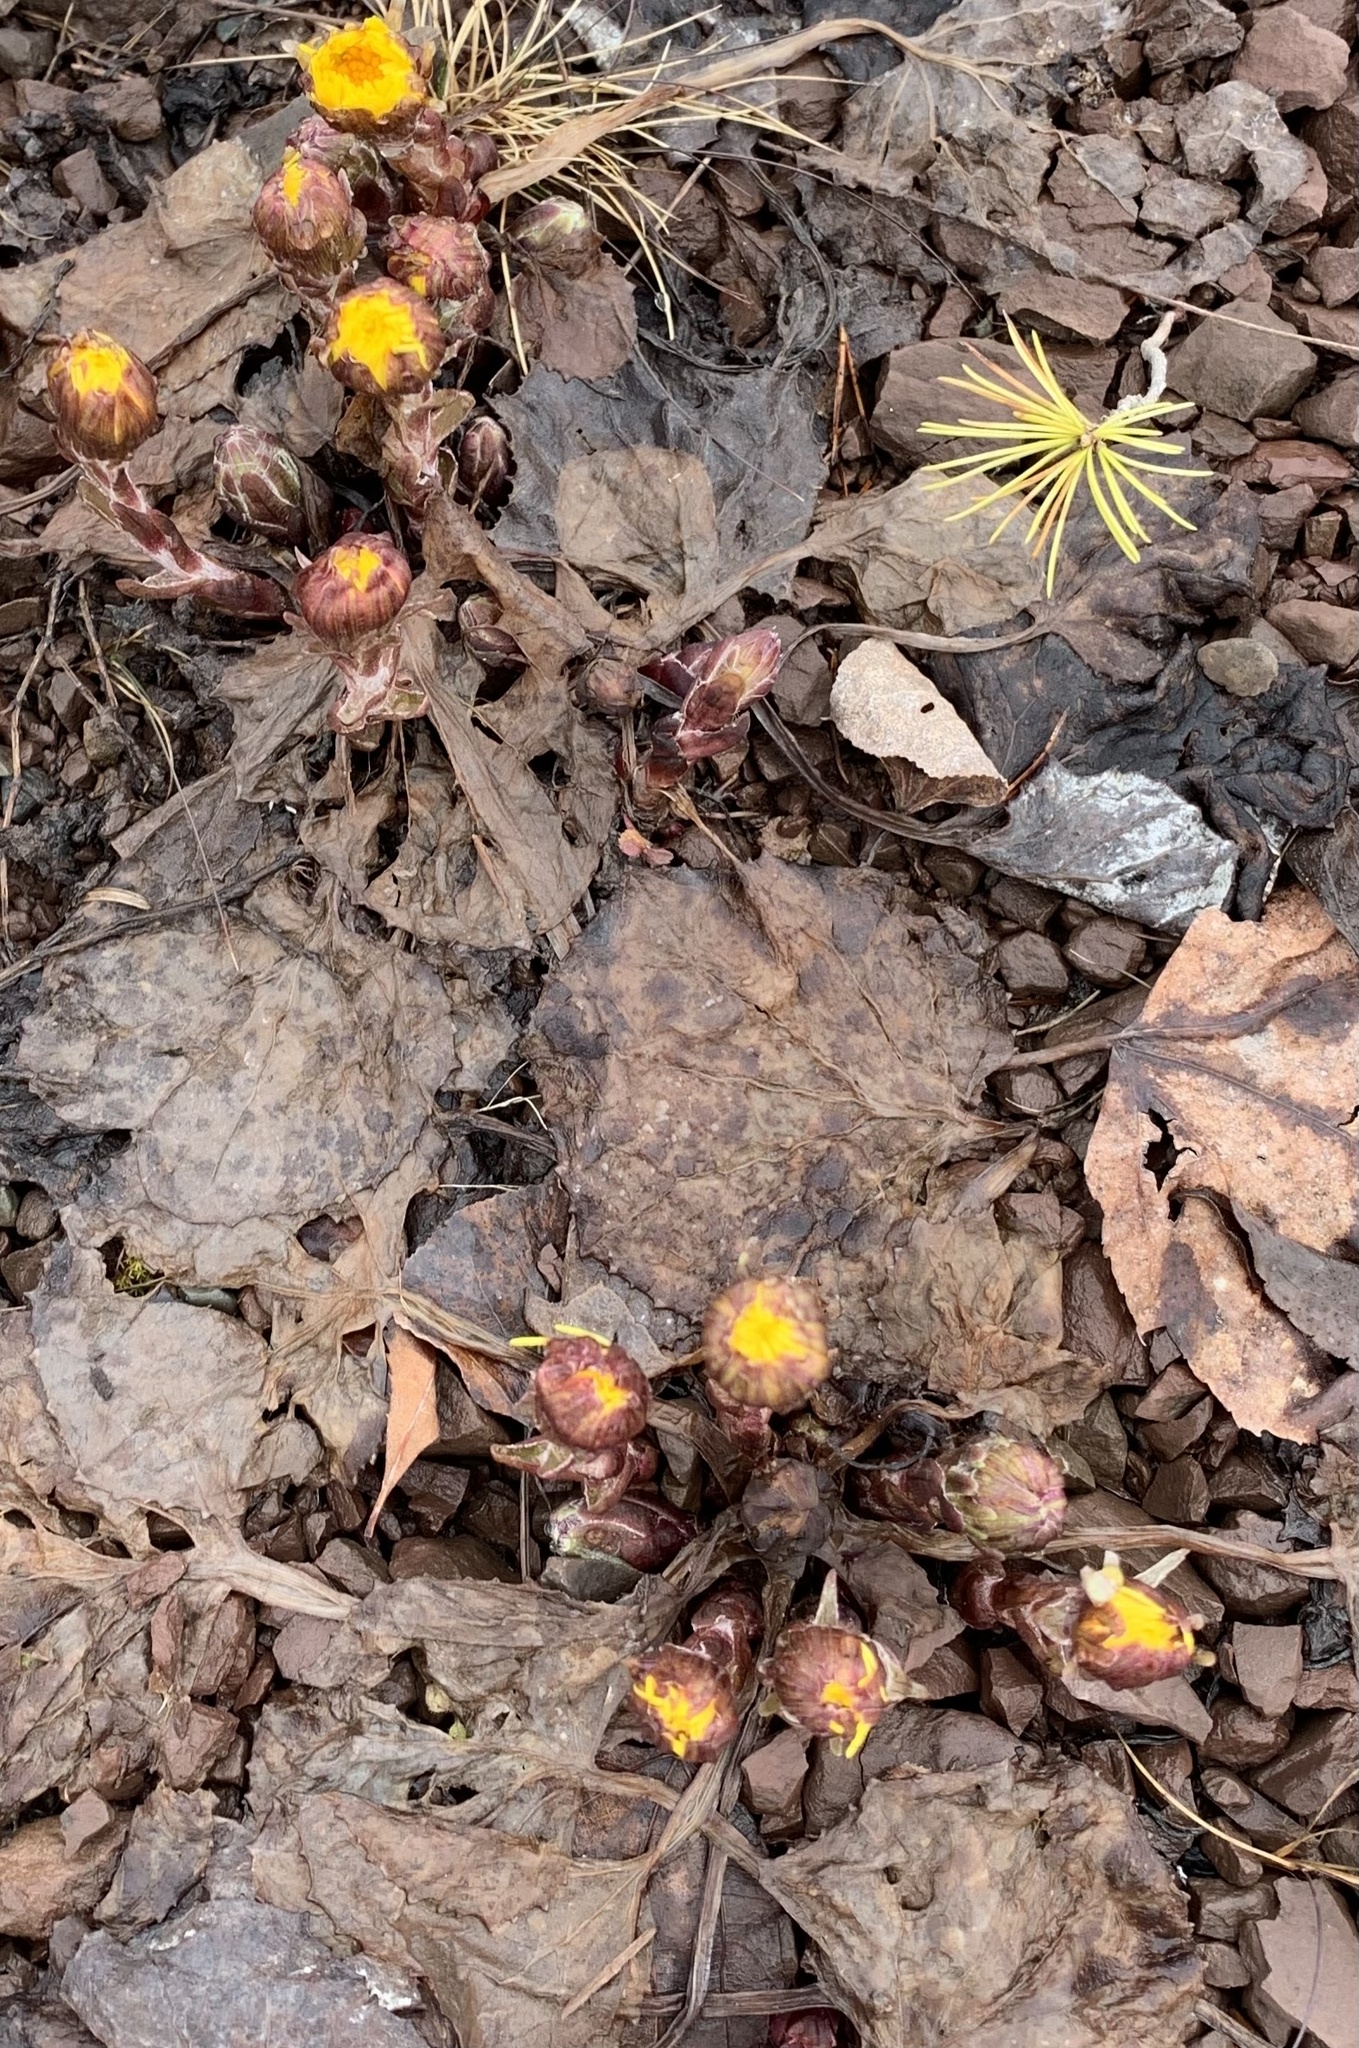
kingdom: Plantae
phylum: Tracheophyta
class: Magnoliopsida
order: Asterales
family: Asteraceae
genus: Tussilago
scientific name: Tussilago farfara
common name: Coltsfoot
